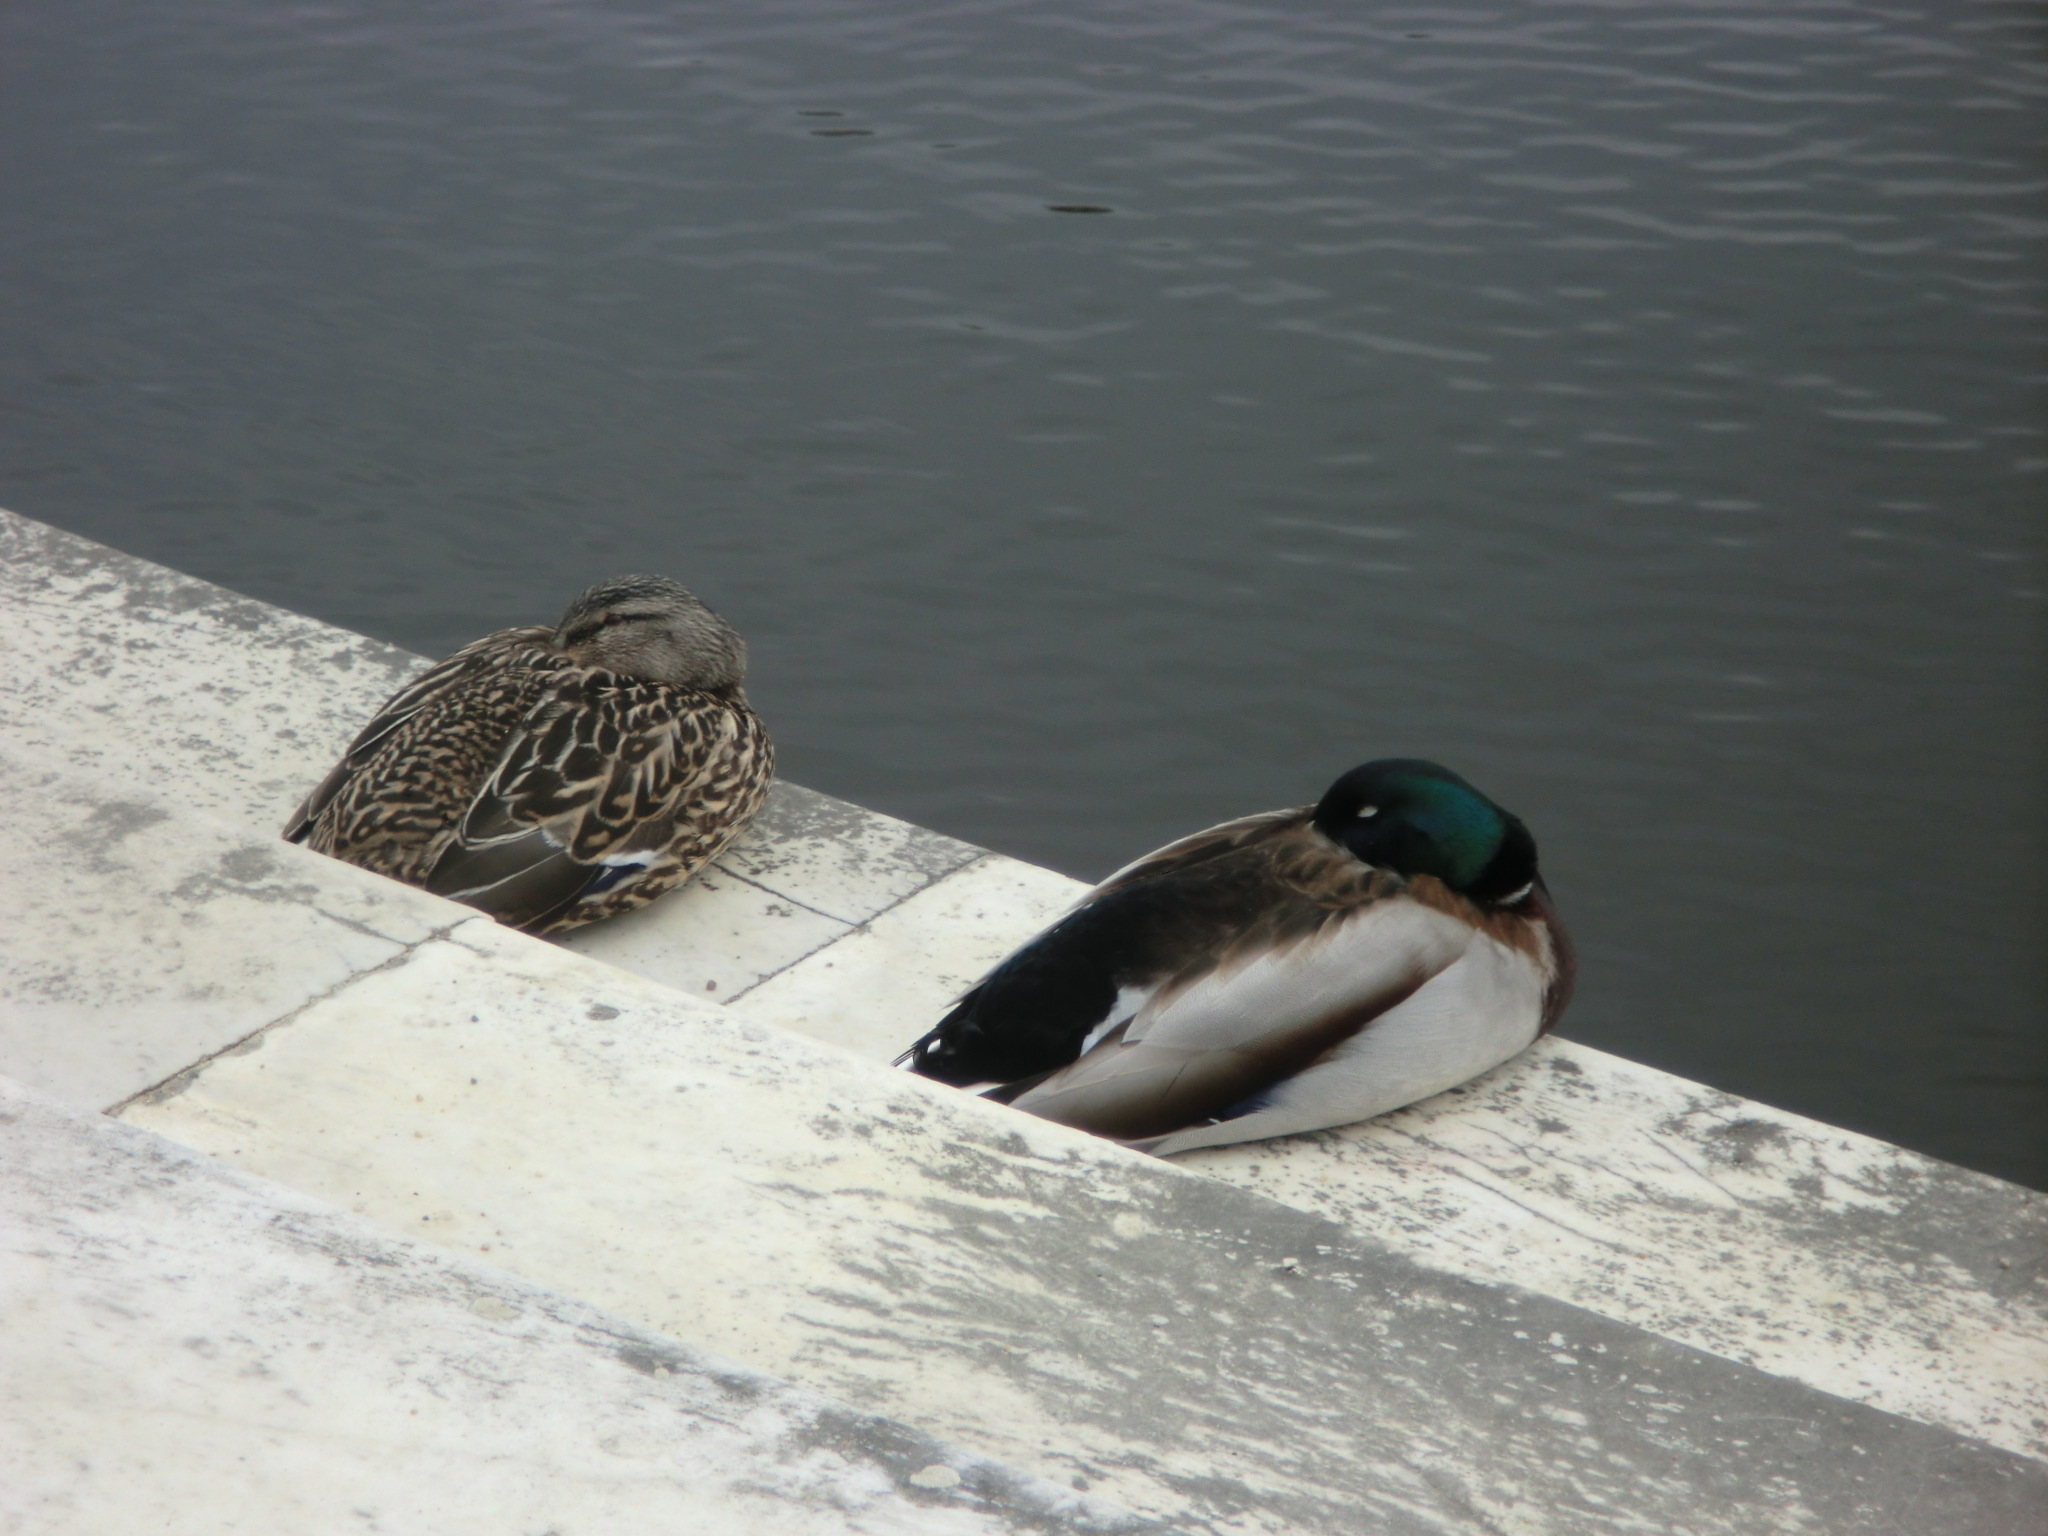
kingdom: Animalia
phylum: Chordata
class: Aves
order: Anseriformes
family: Anatidae
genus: Anas
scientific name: Anas platyrhynchos
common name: Mallard
